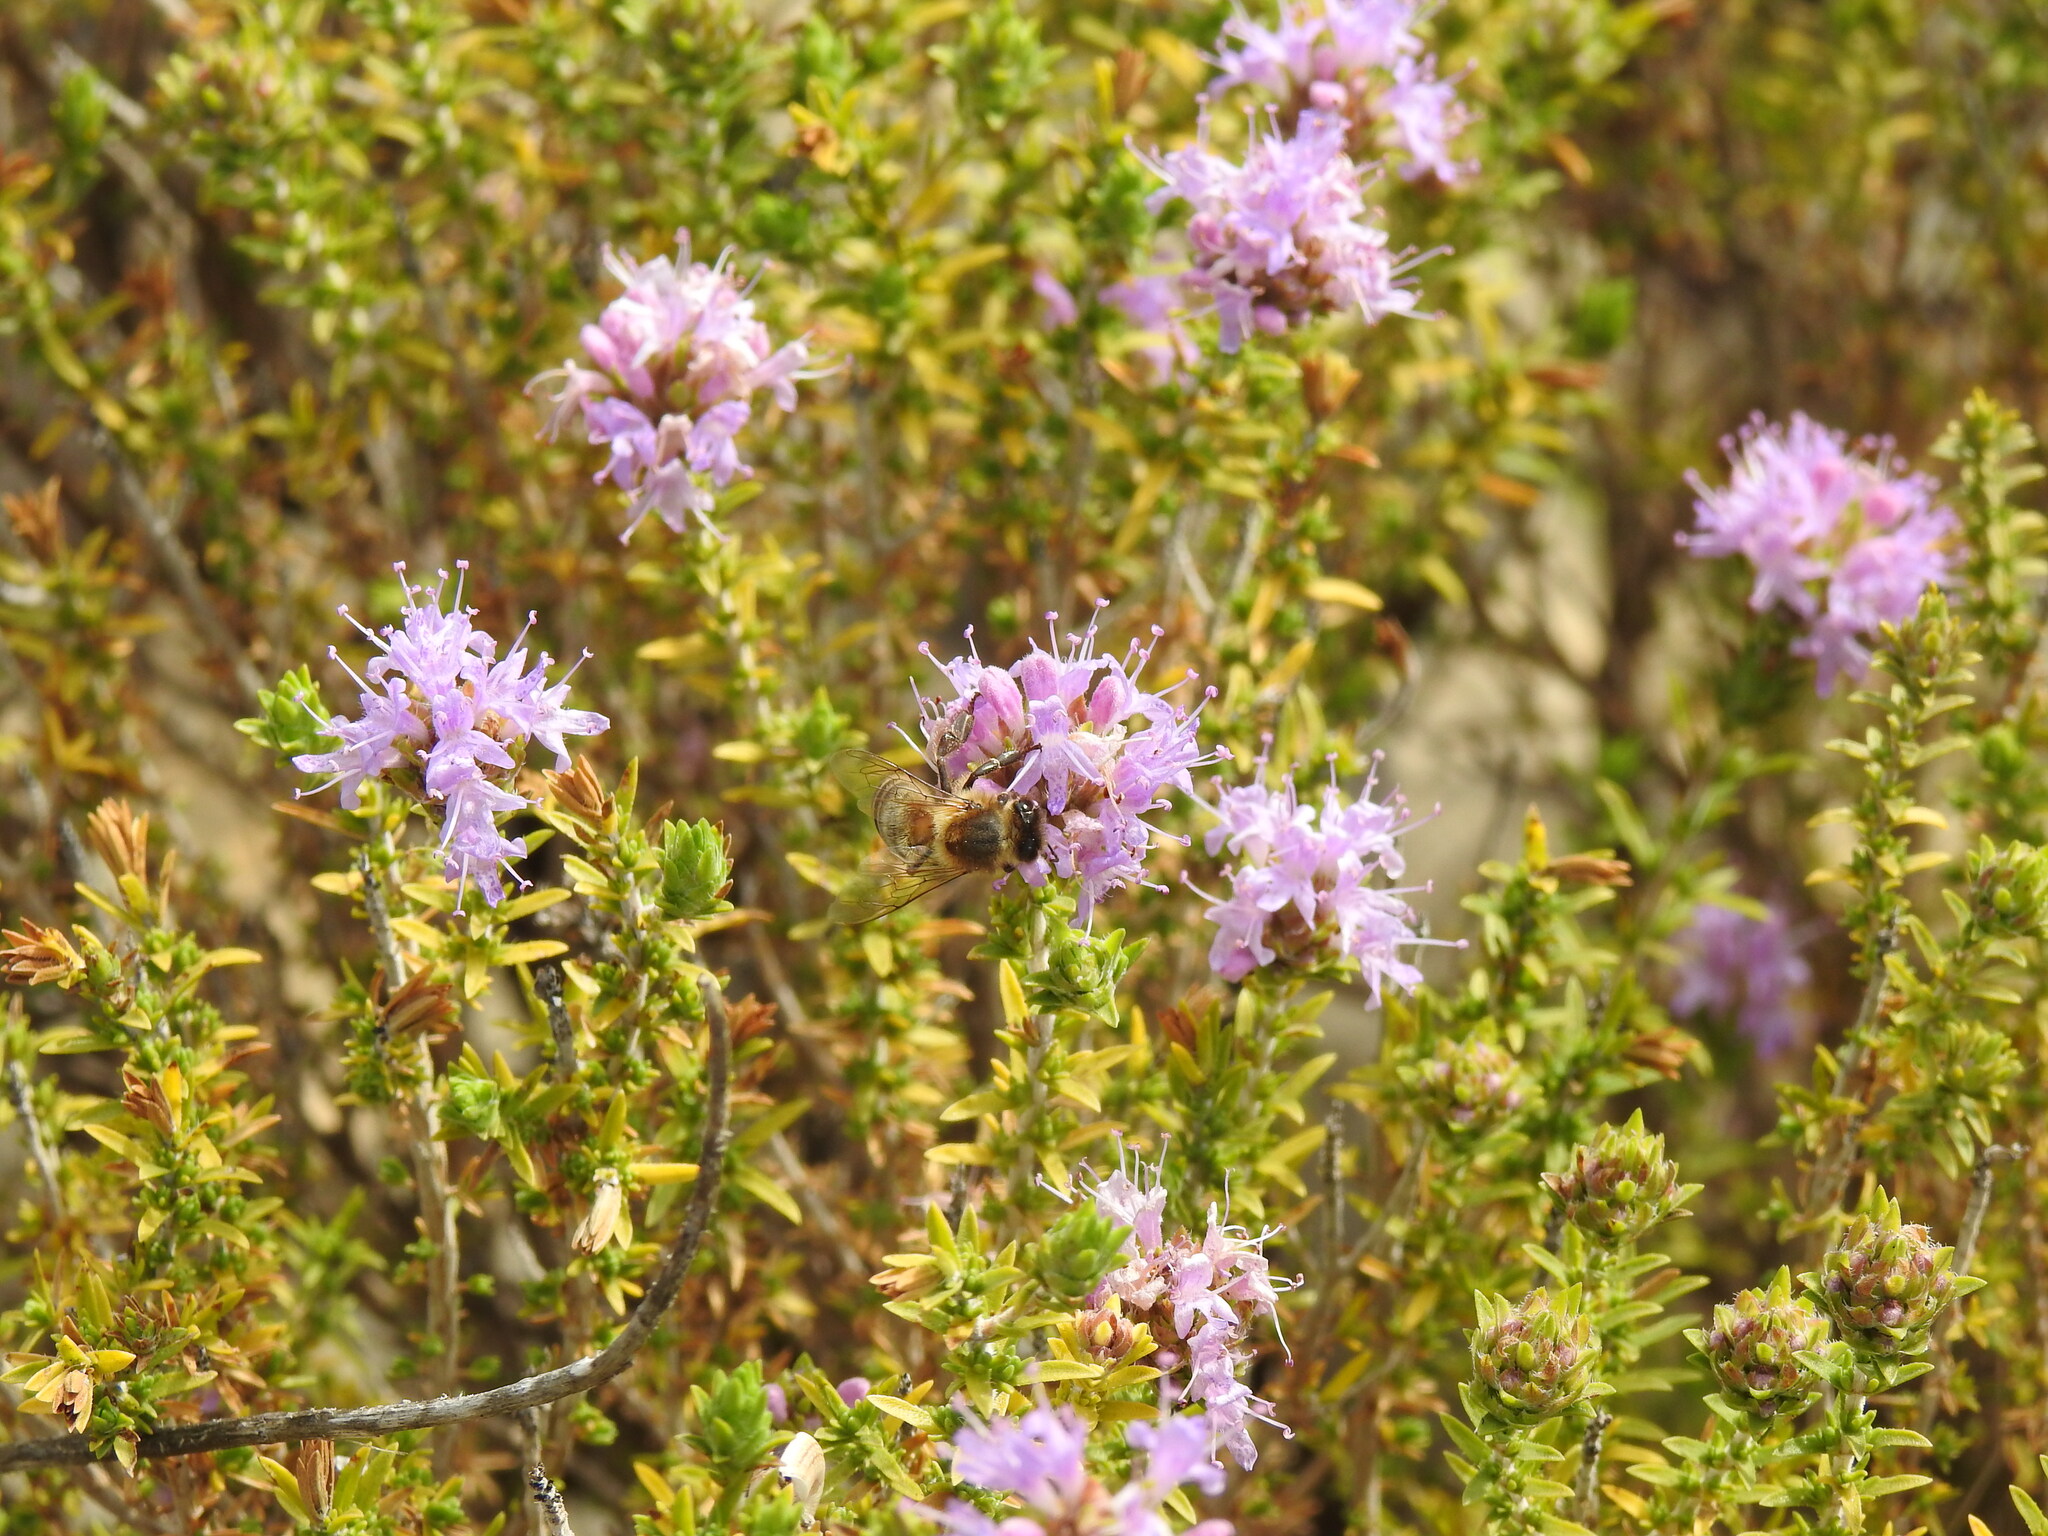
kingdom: Plantae
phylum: Tracheophyta
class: Magnoliopsida
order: Lamiales
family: Lamiaceae
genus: Thymbra
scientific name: Thymbra capitata
